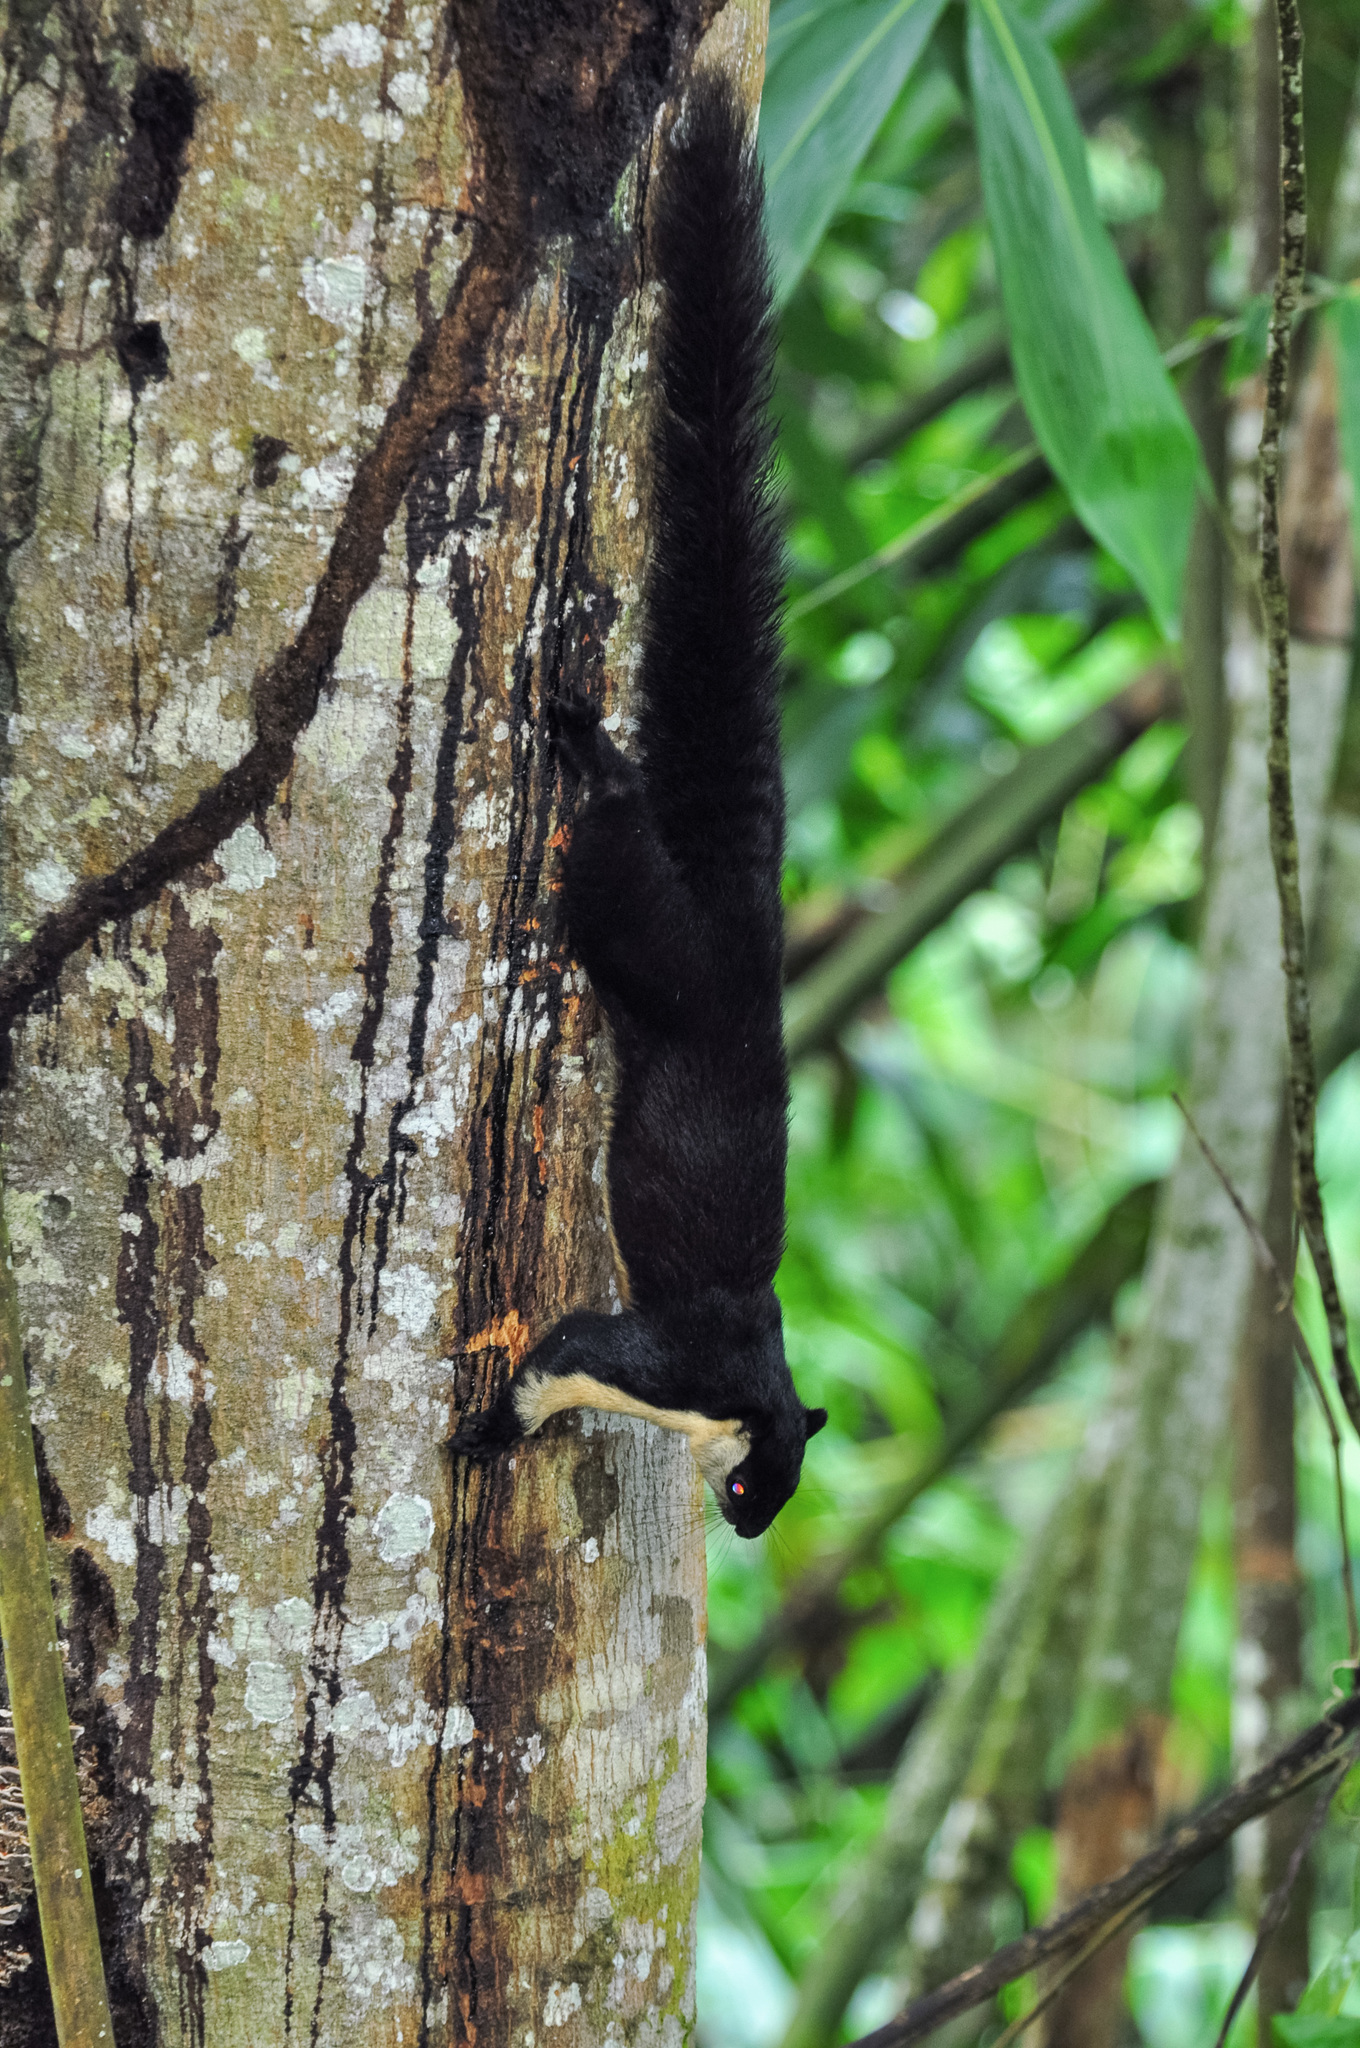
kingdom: Animalia
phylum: Chordata
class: Mammalia
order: Rodentia
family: Sciuridae
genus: Ratufa
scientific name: Ratufa bicolor
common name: Black giant squirrel
